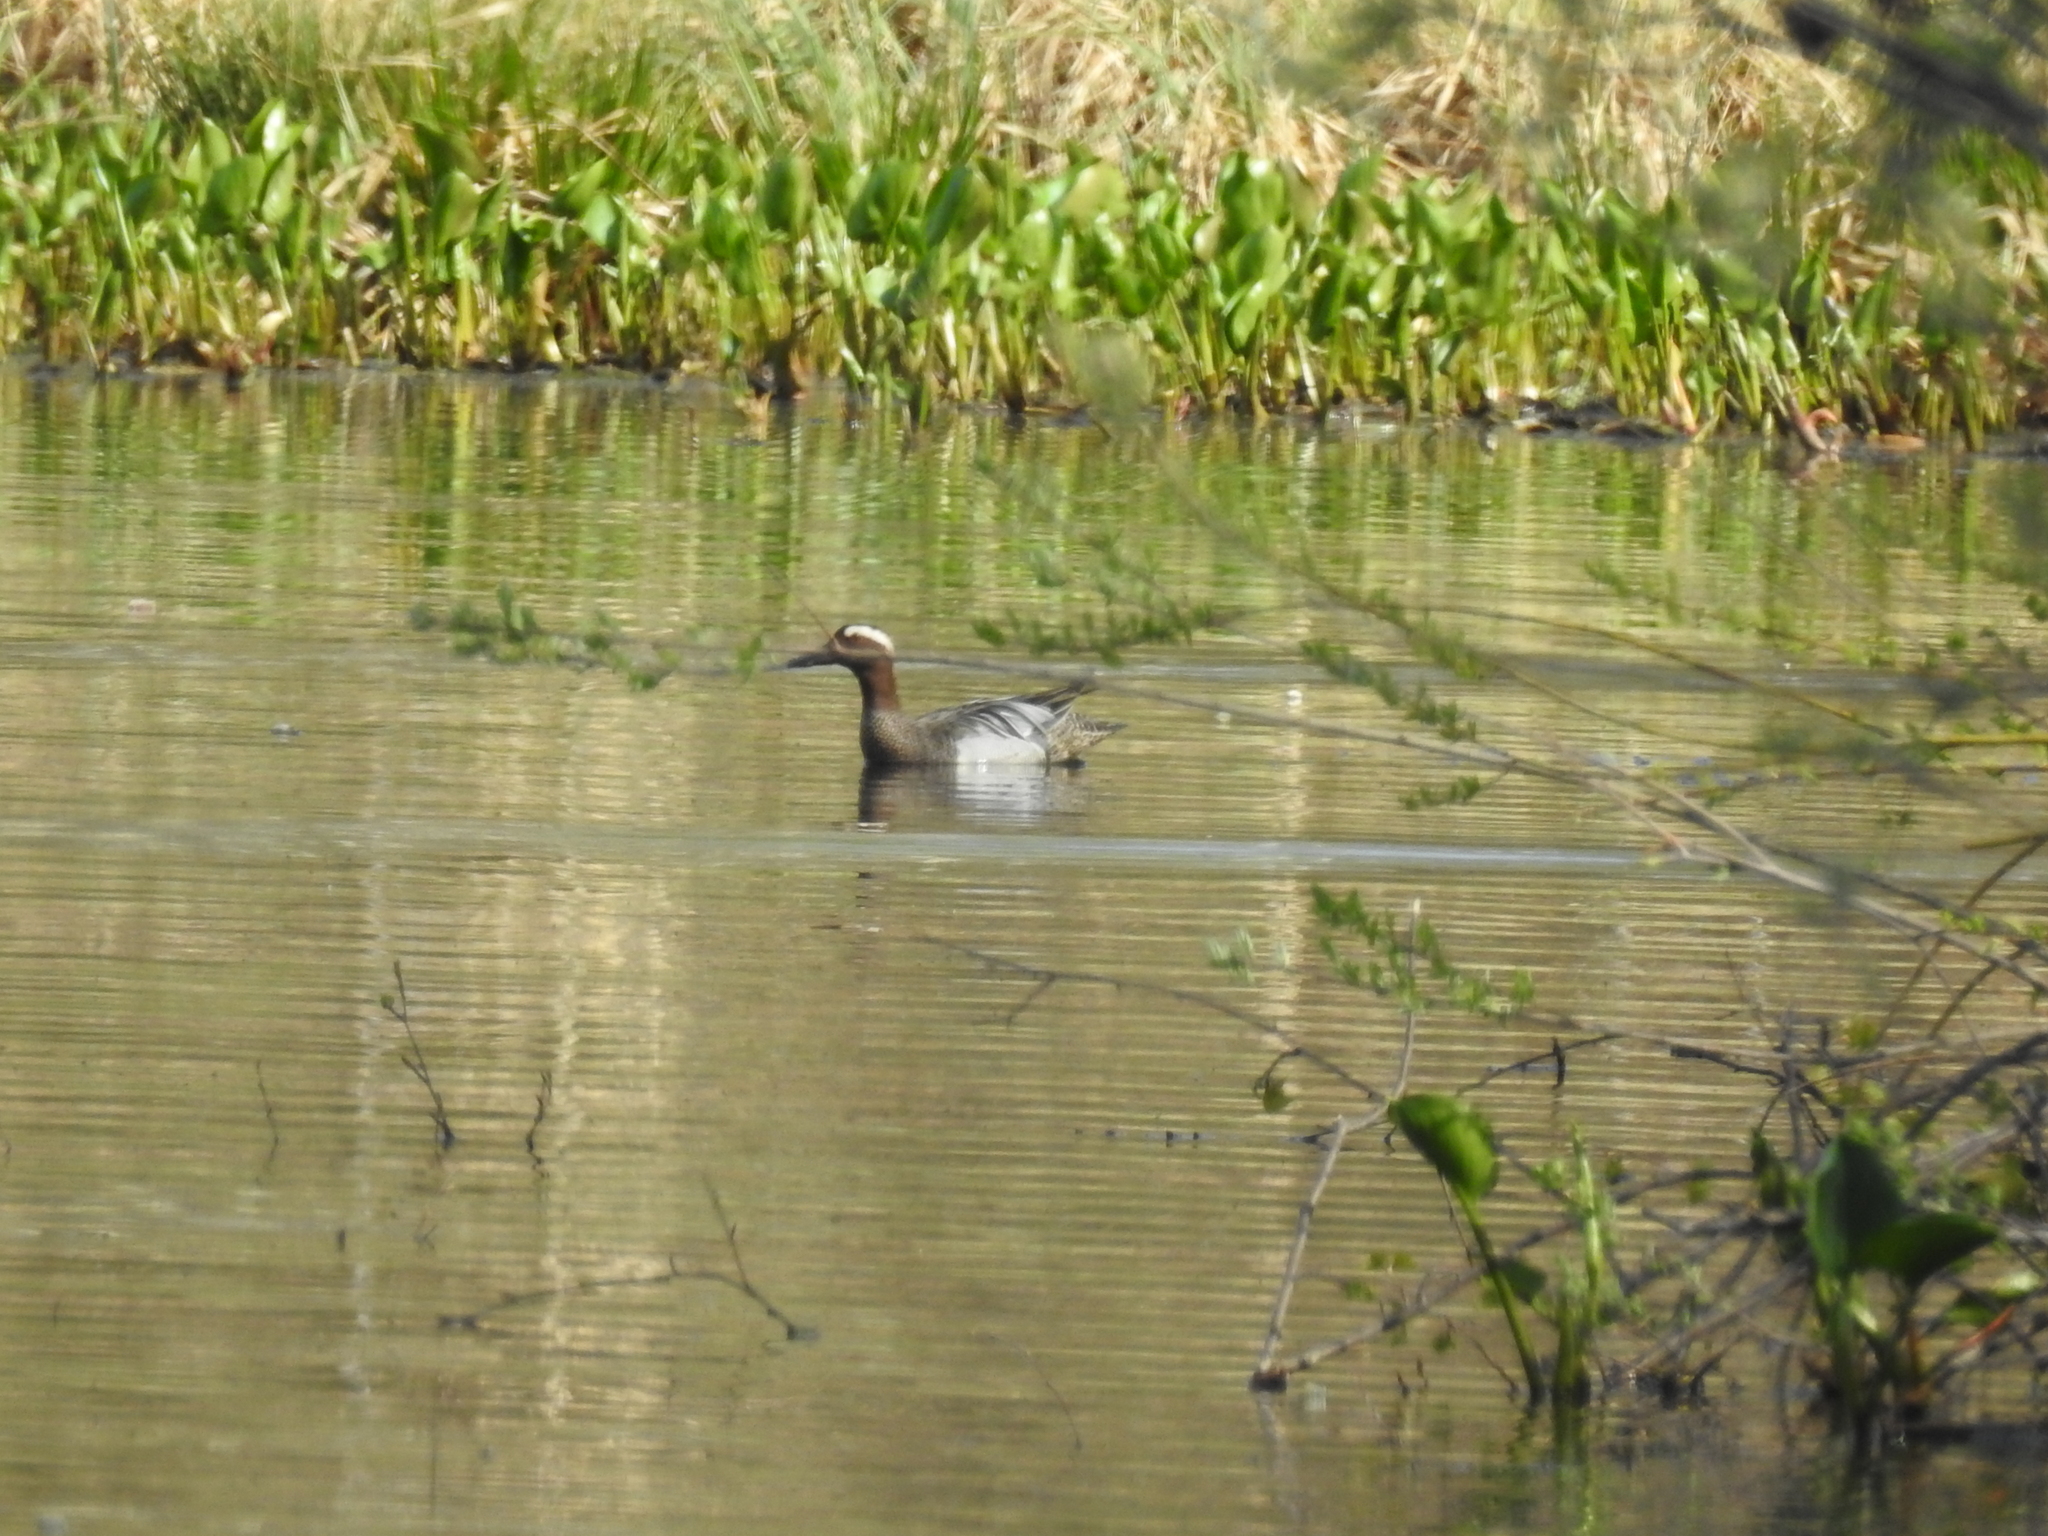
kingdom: Animalia
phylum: Chordata
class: Aves
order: Anseriformes
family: Anatidae
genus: Spatula
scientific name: Spatula querquedula
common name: Garganey
